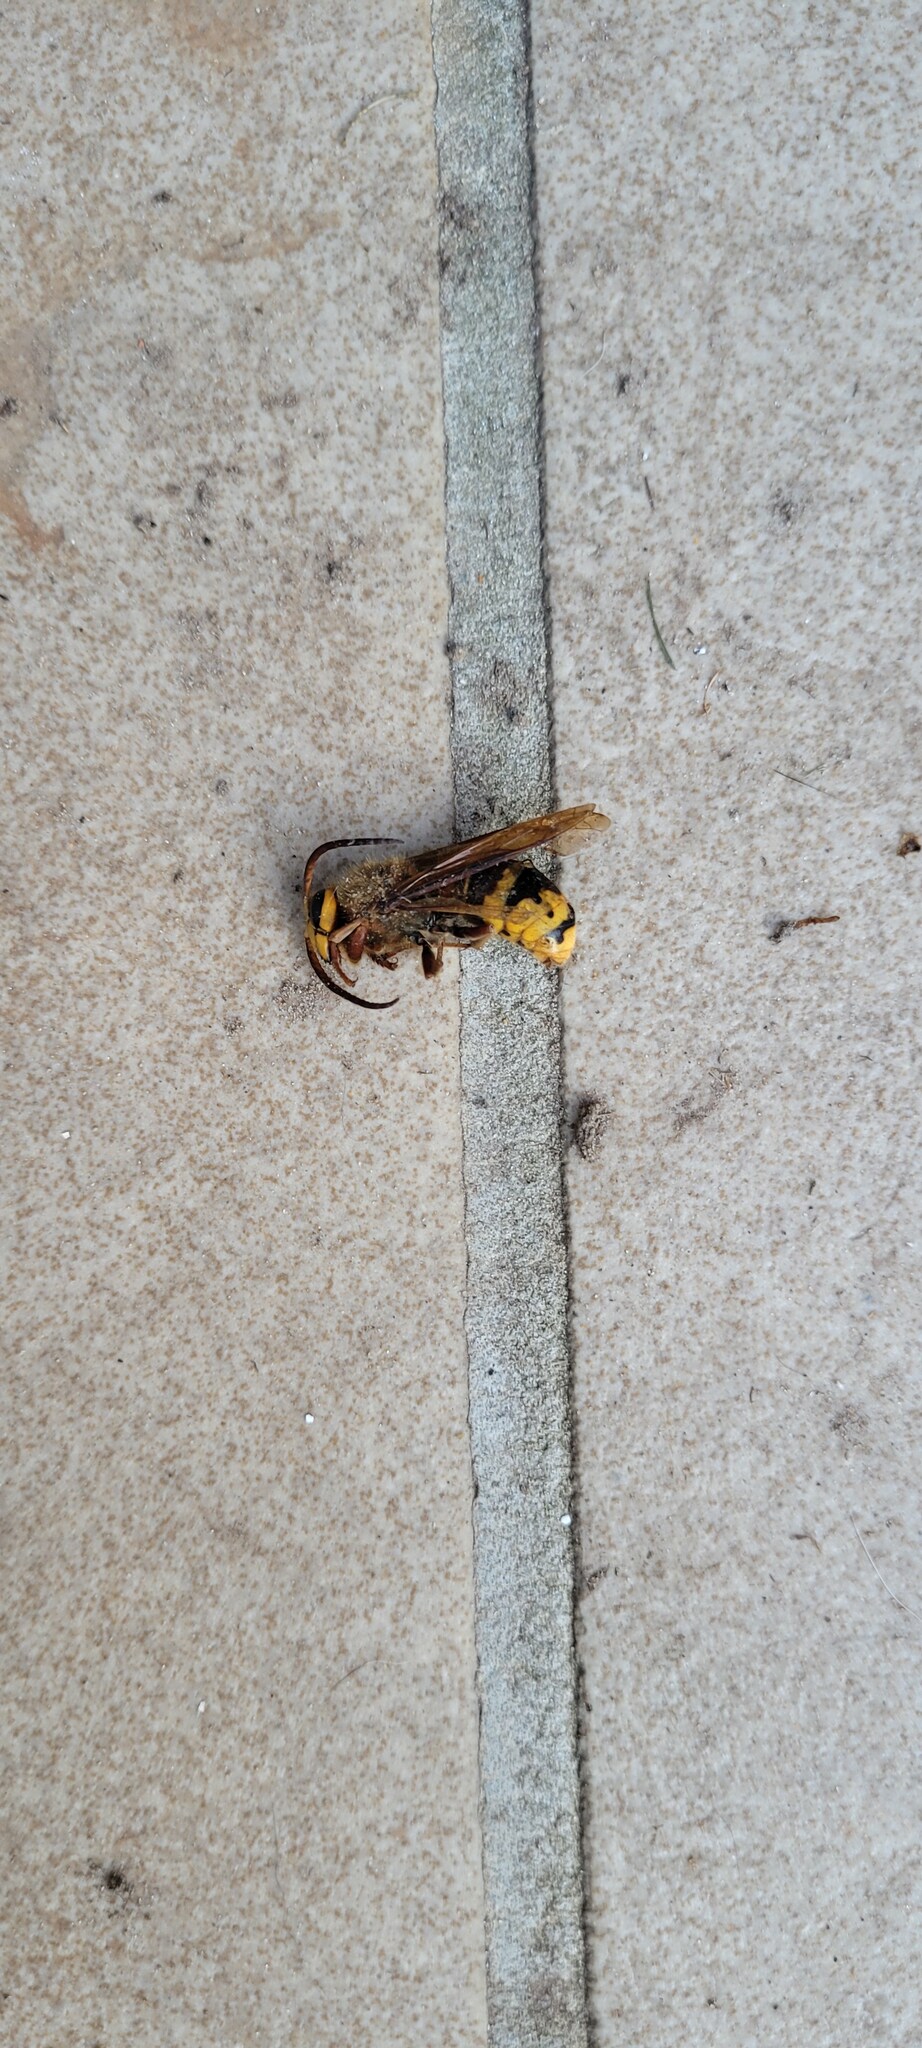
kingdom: Animalia
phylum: Arthropoda
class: Insecta
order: Hymenoptera
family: Vespidae
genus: Vespa
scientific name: Vespa crabro
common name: Hornet
